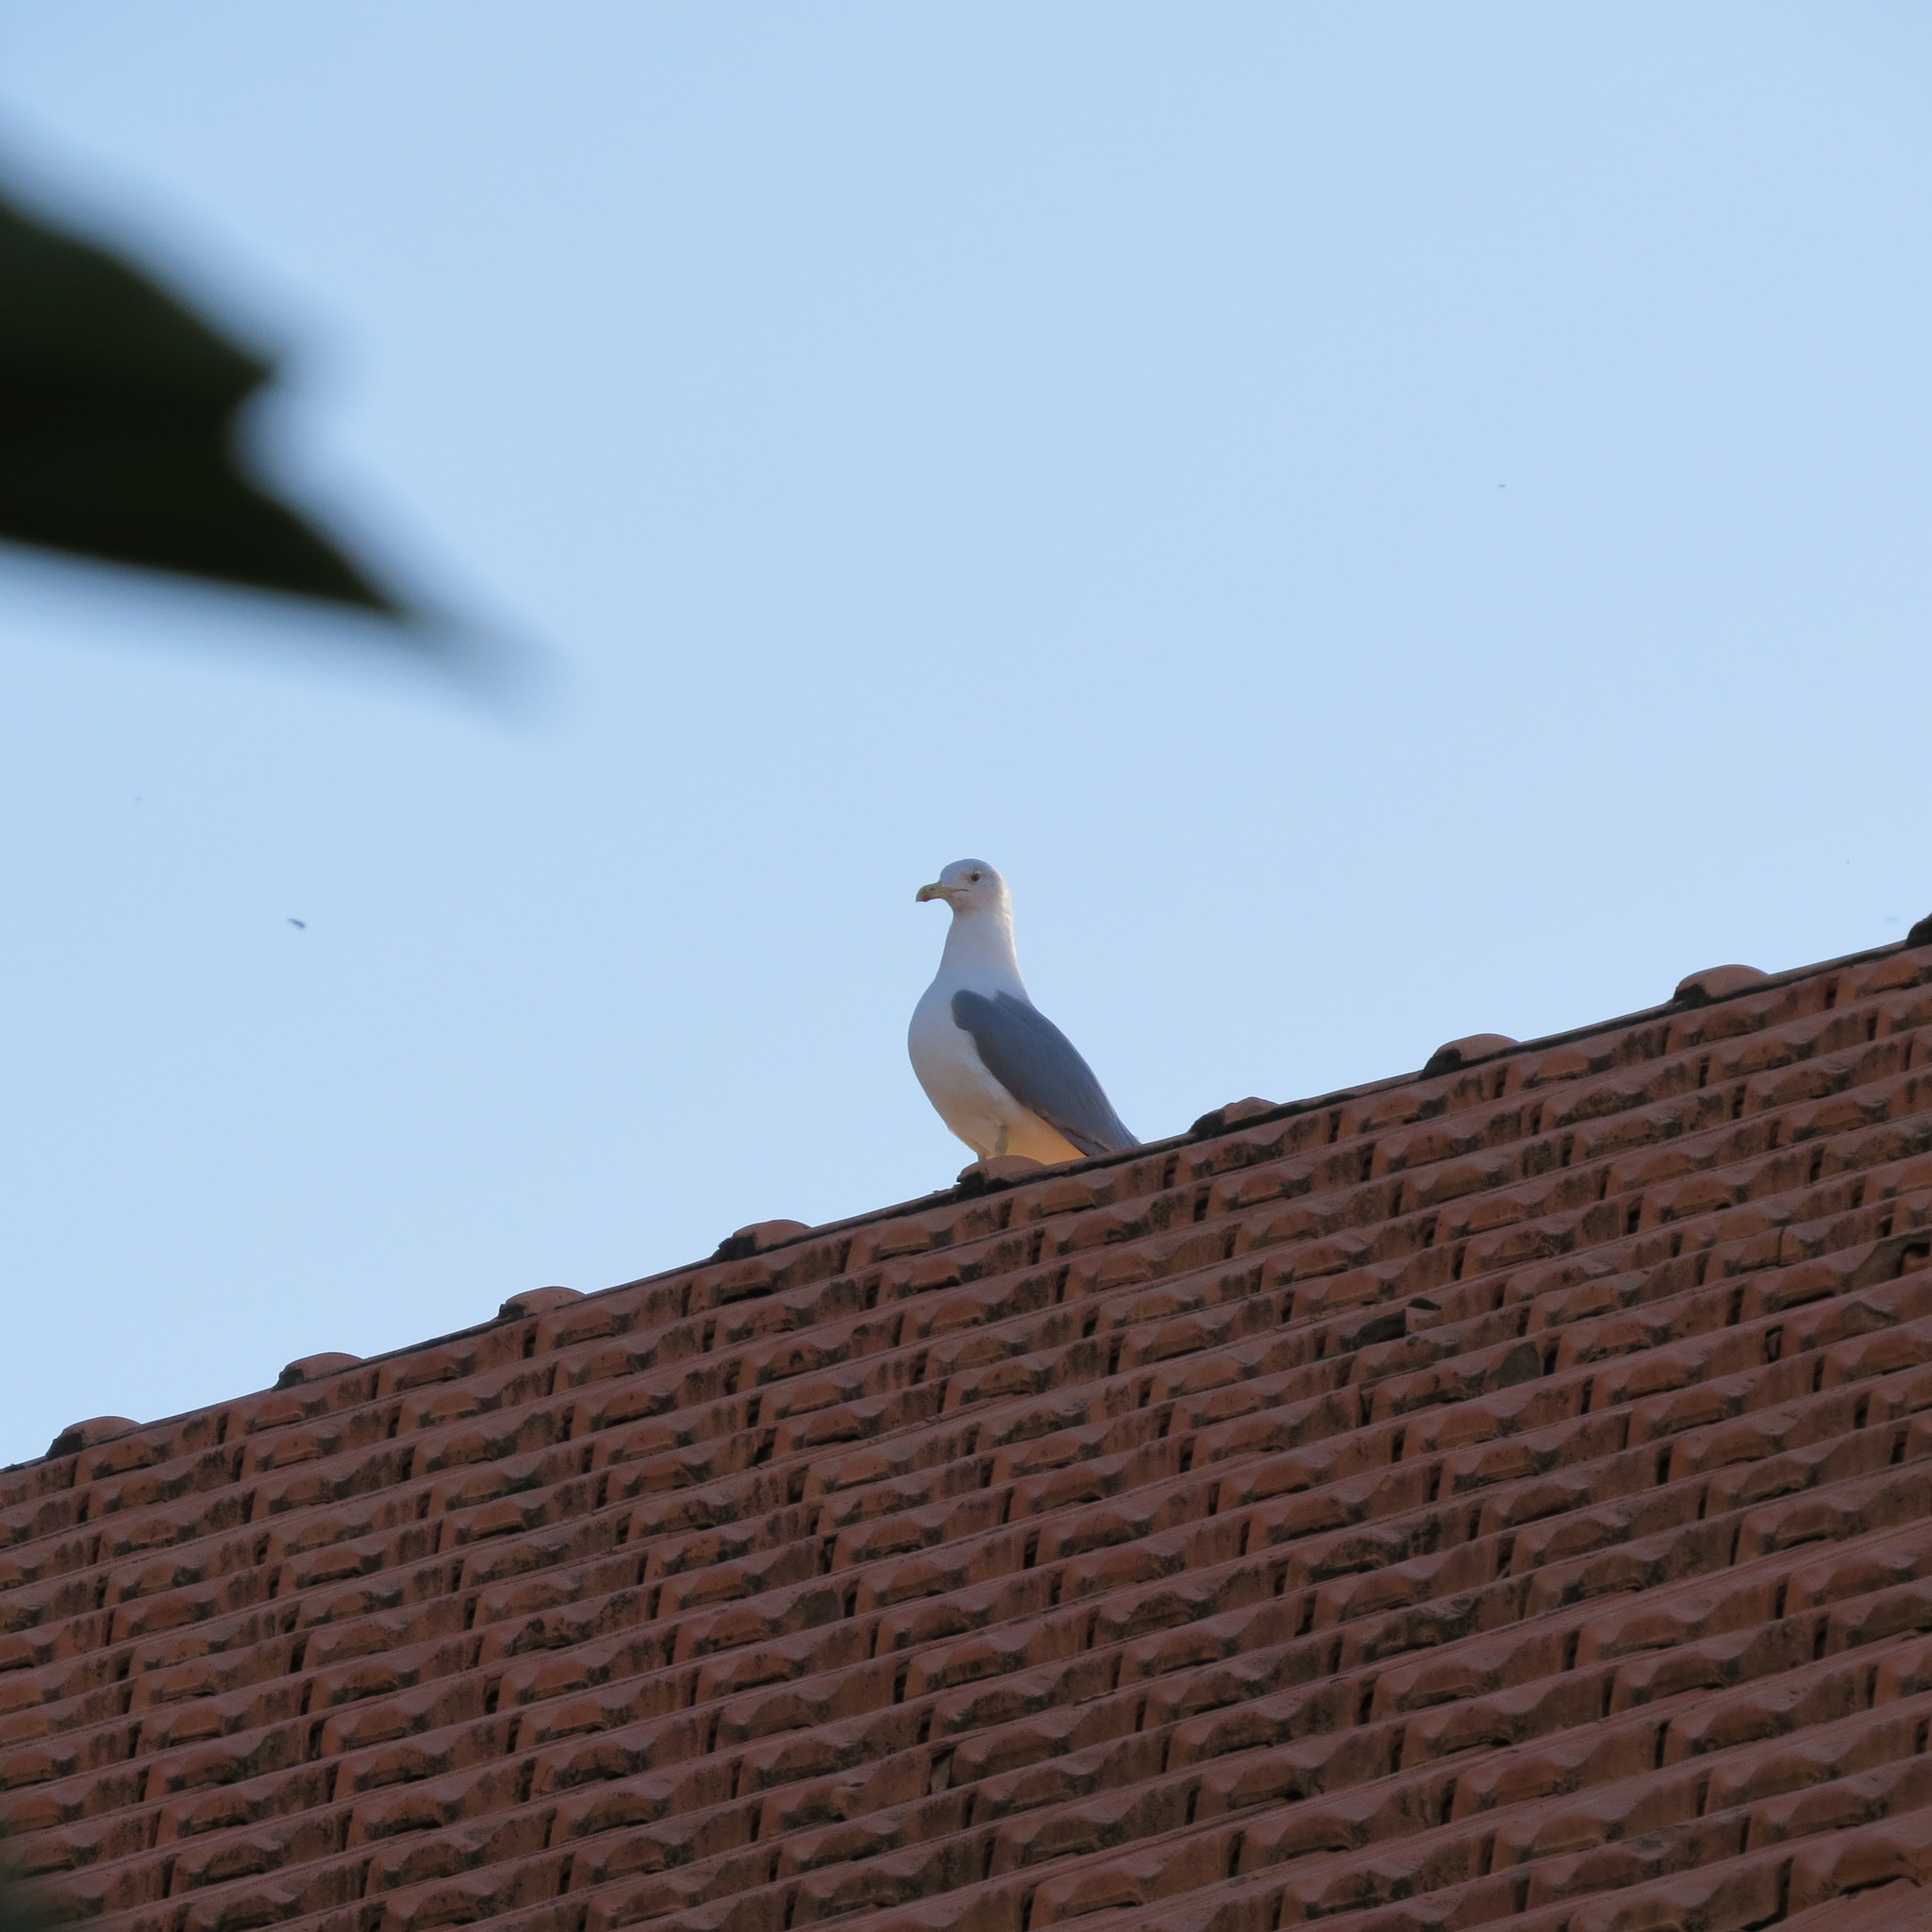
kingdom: Animalia
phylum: Chordata
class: Aves
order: Charadriiformes
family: Laridae
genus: Larus
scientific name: Larus michahellis
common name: Yellow-legged gull
